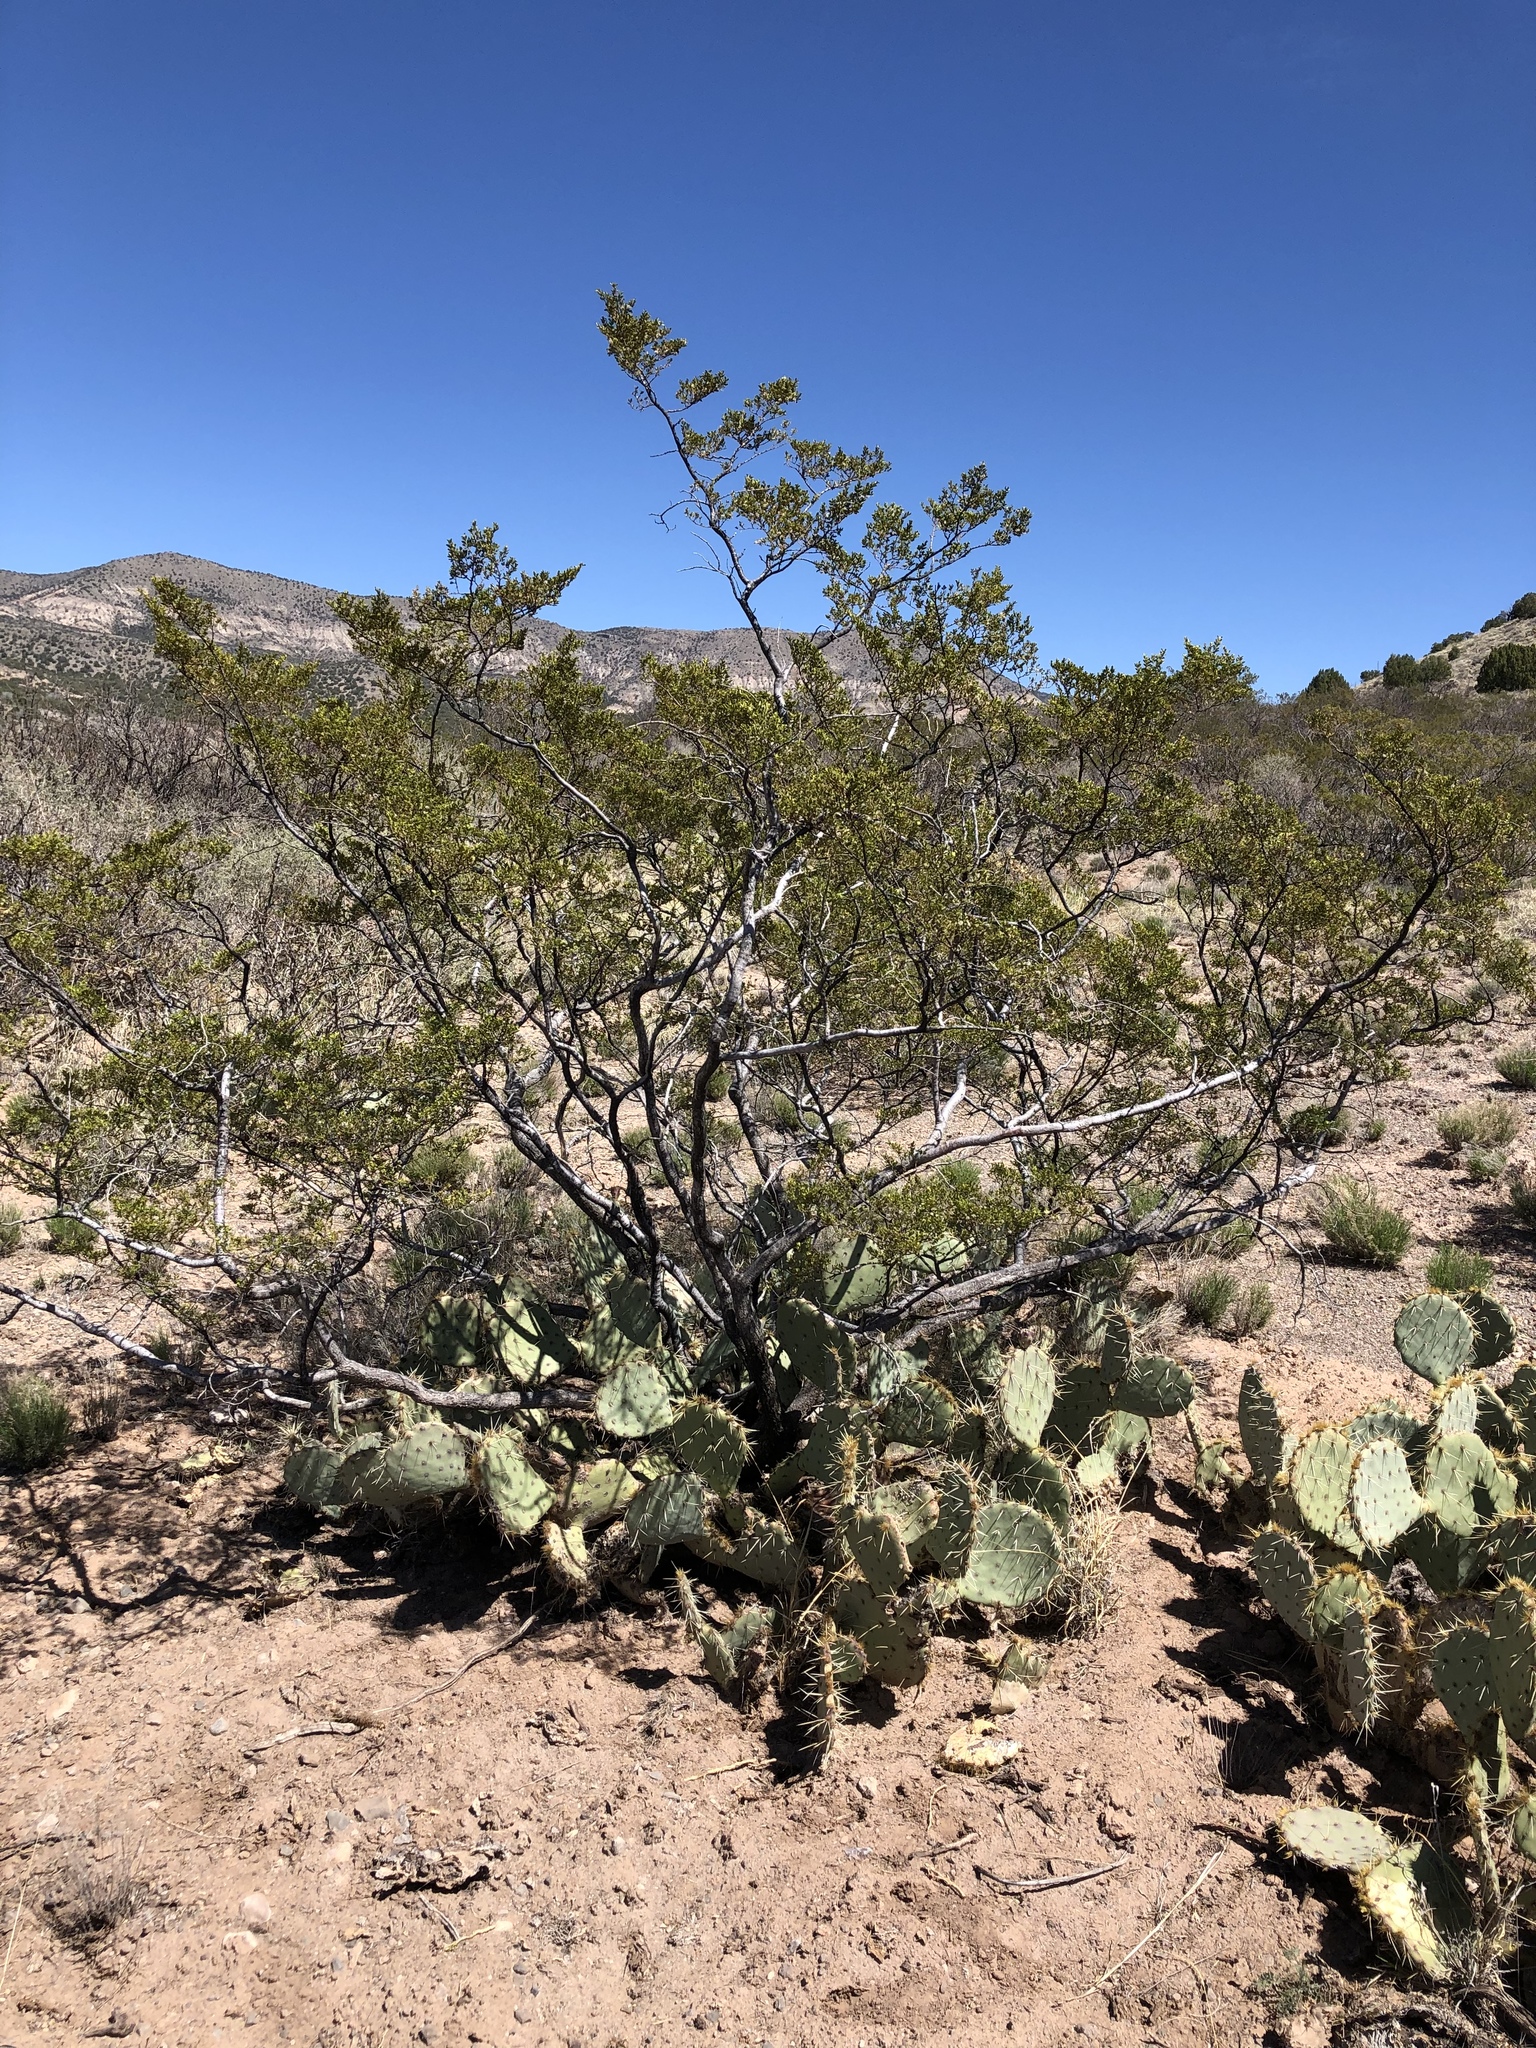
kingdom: Plantae
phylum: Tracheophyta
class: Magnoliopsida
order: Zygophyllales
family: Zygophyllaceae
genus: Larrea
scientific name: Larrea tridentata
